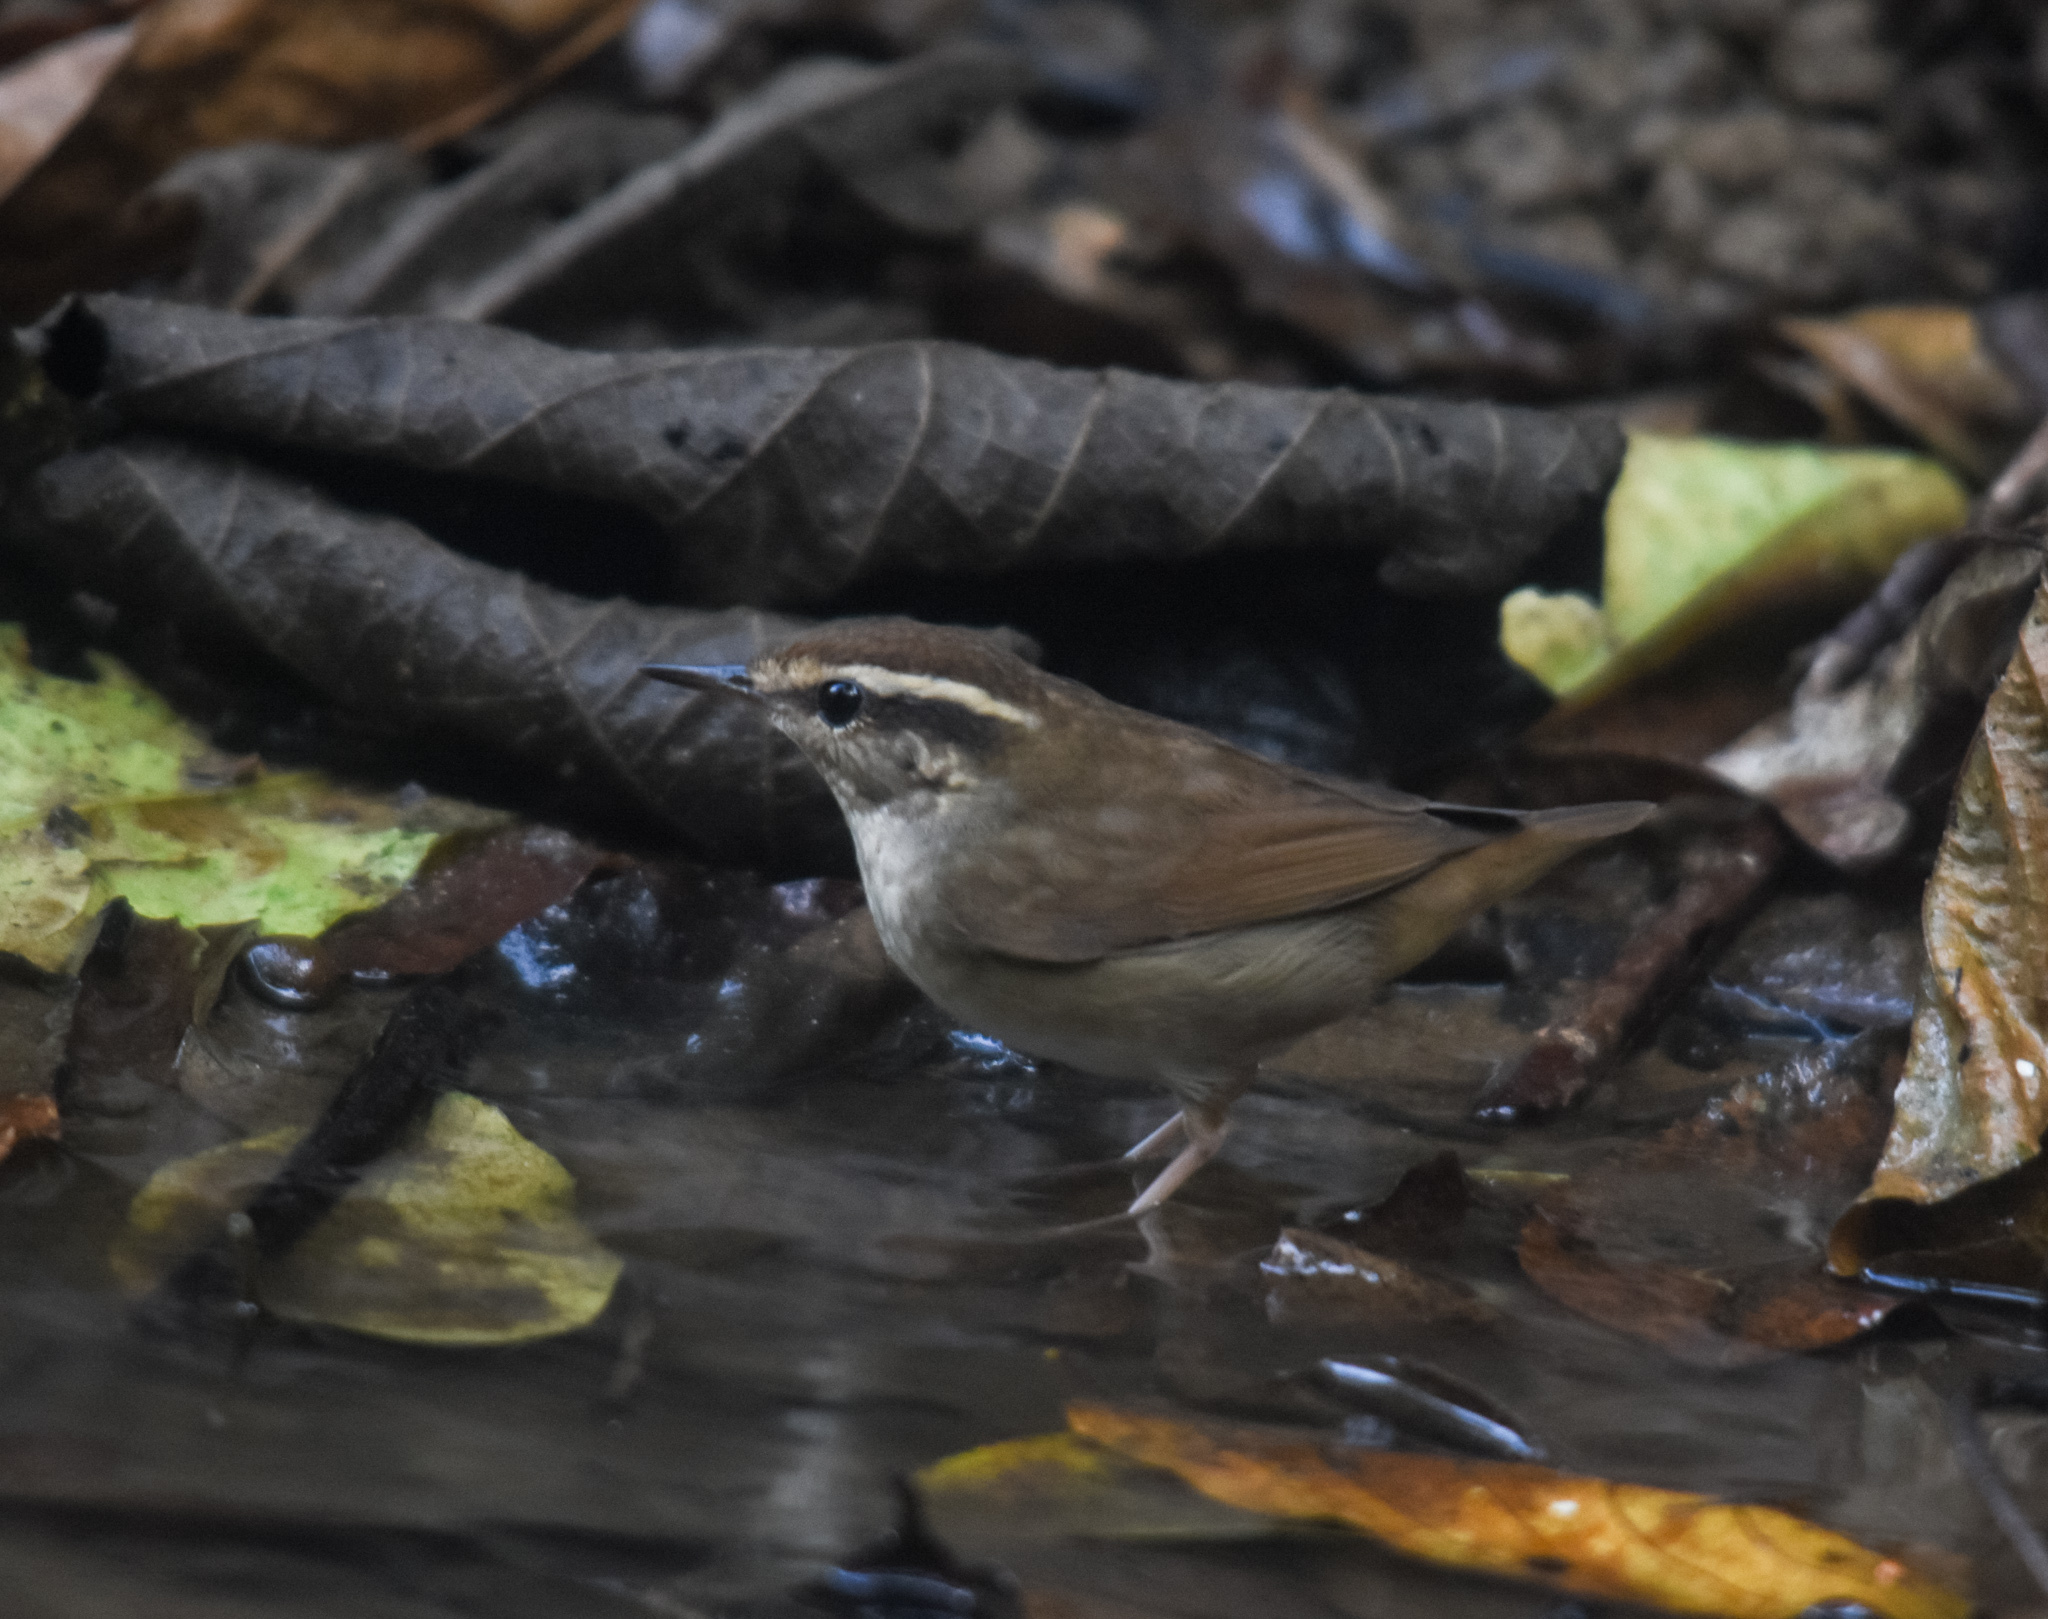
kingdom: Animalia
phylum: Chordata
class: Aves
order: Passeriformes
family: Cettiidae
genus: Urosphena
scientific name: Urosphena squameiceps
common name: Asian stubtail
